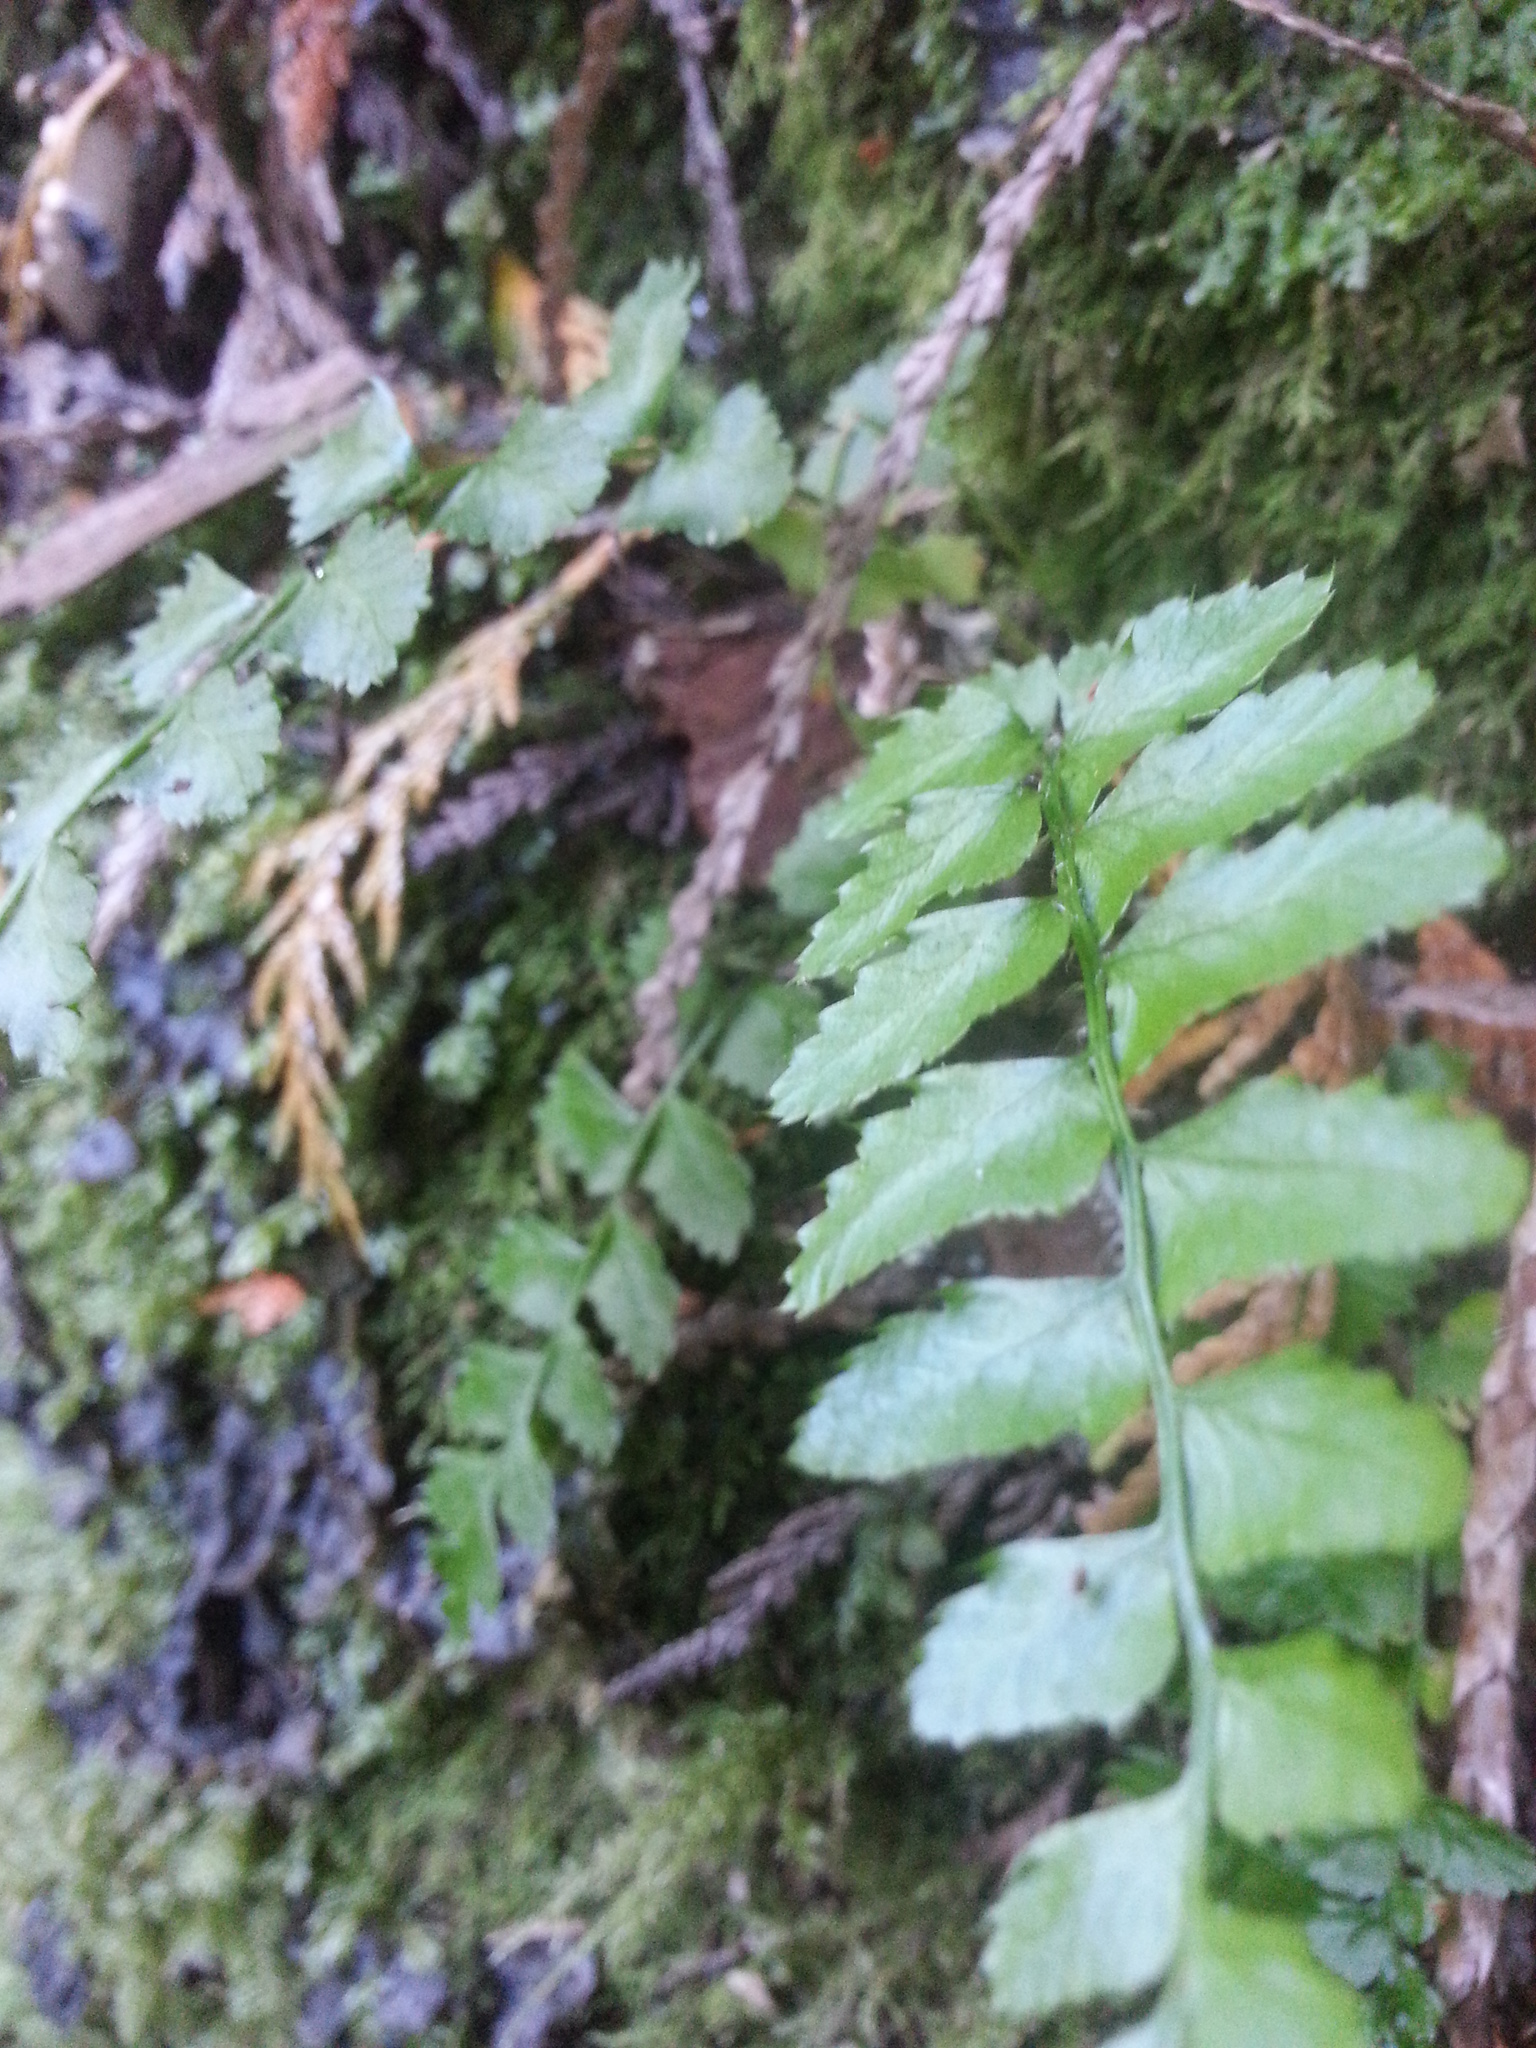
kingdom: Plantae
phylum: Tracheophyta
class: Polypodiopsida
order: Polypodiales
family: Dryopteridaceae
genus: Polystichum
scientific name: Polystichum munitum
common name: Western sword-fern
